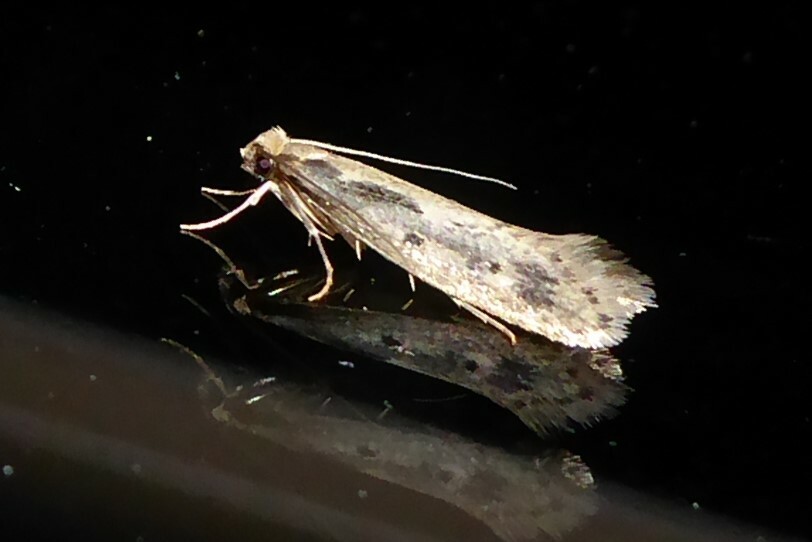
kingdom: Animalia
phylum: Arthropoda
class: Insecta
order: Lepidoptera
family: Tineidae
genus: Tinea
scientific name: Tinea pallescentella
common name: Large pale clothes moth
